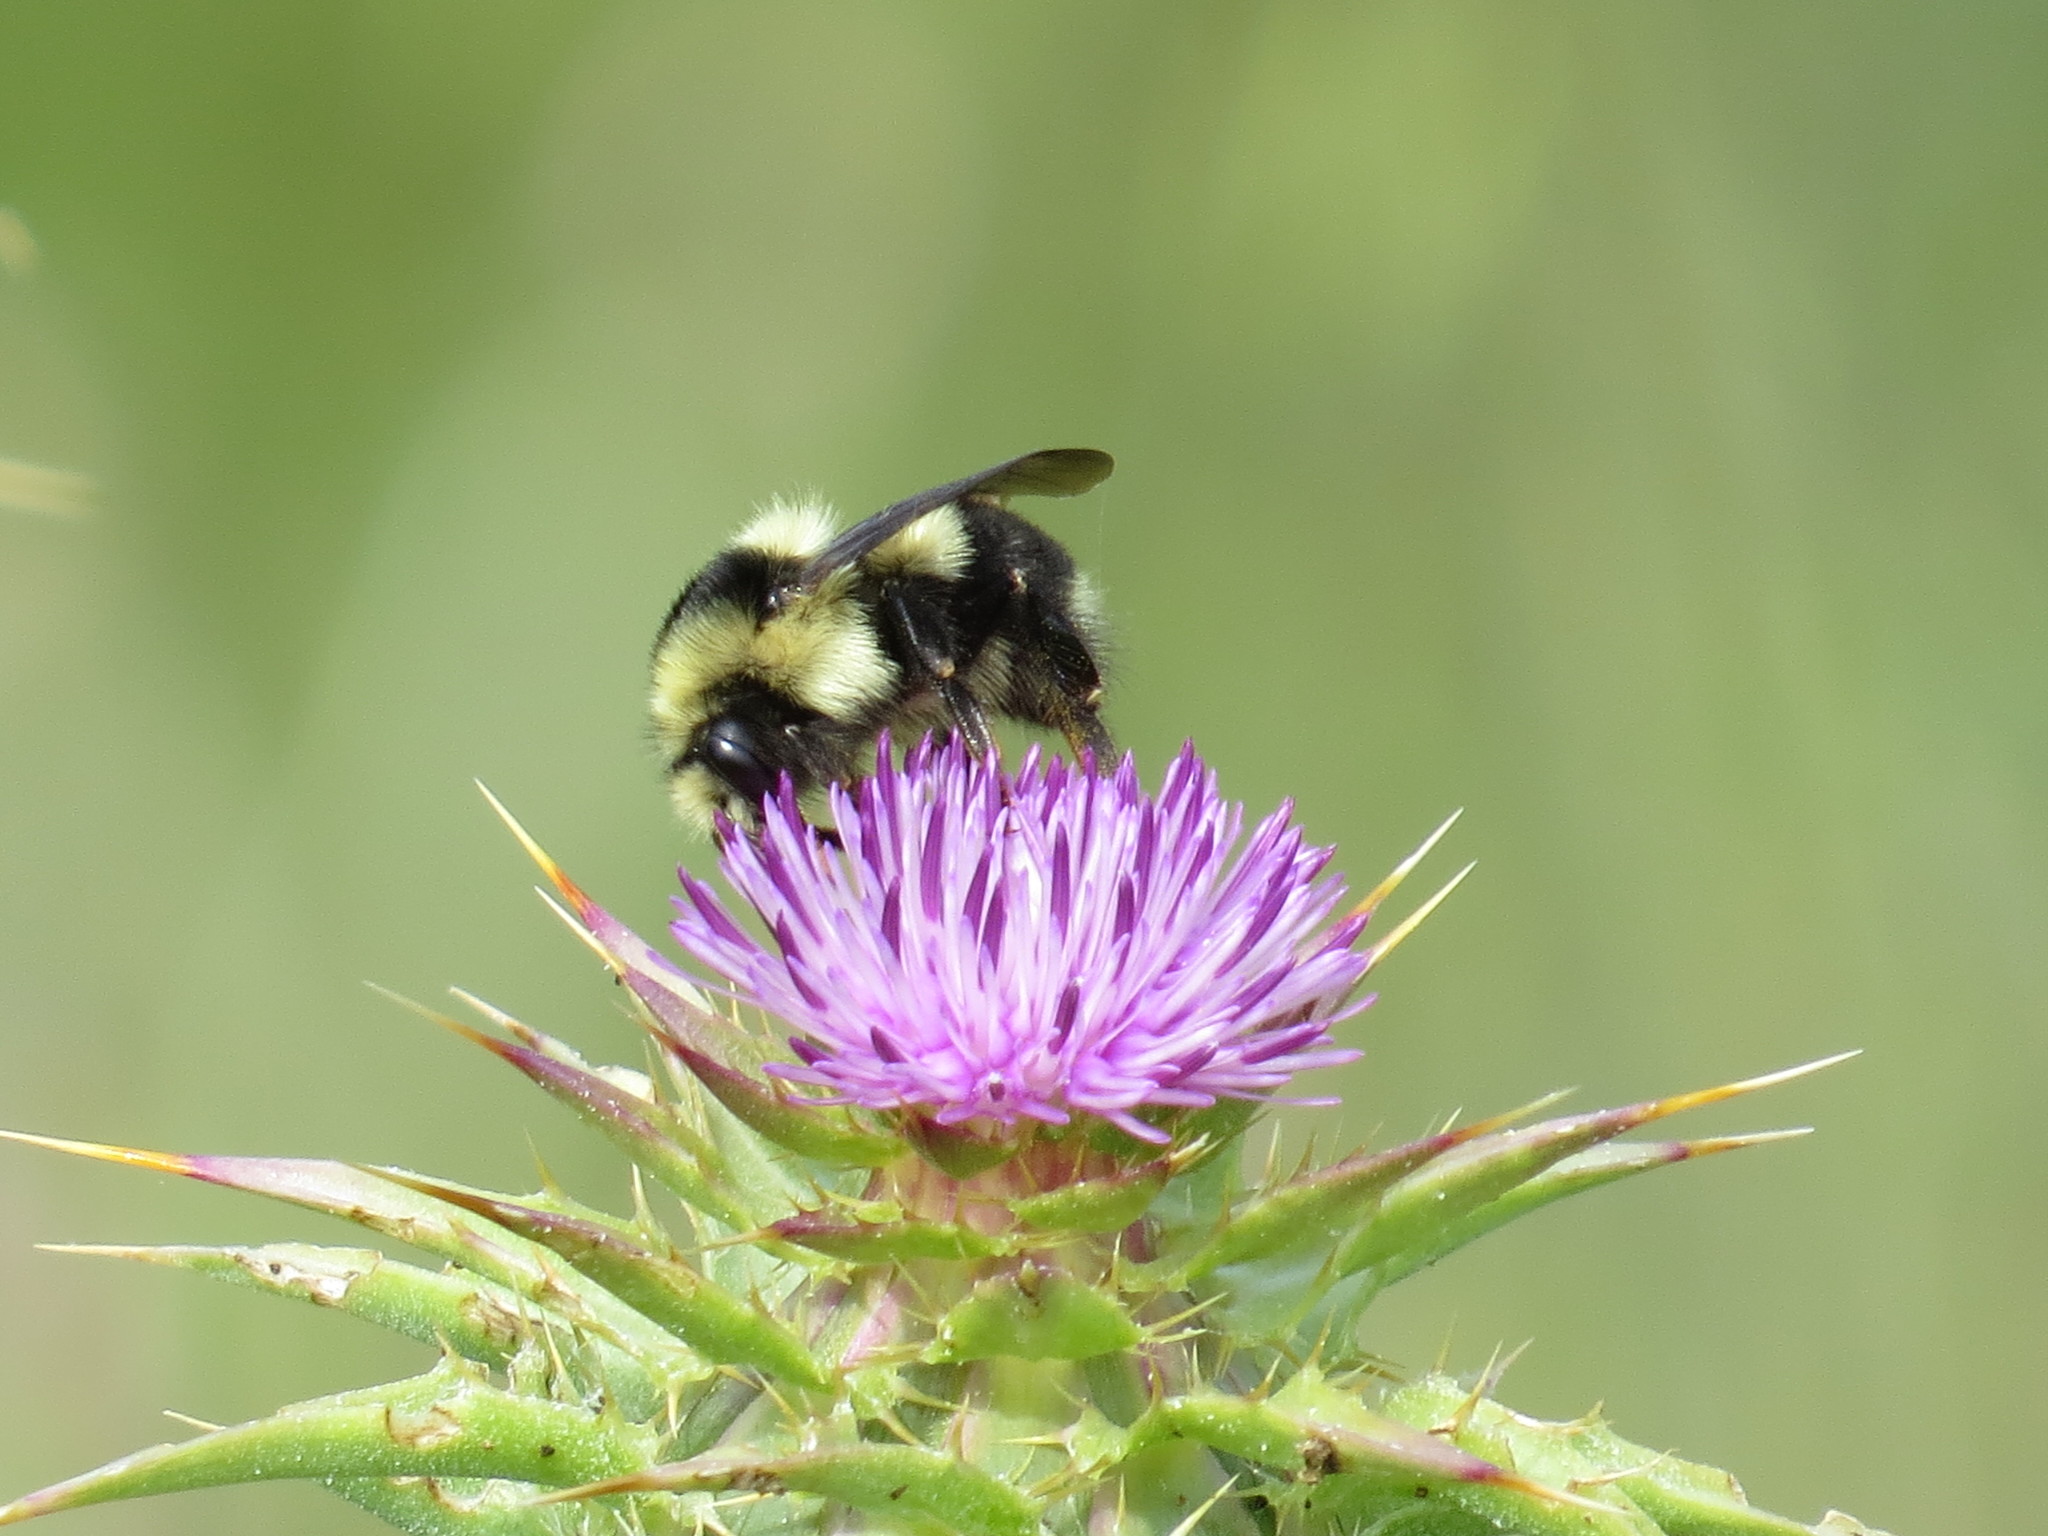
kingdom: Animalia
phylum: Arthropoda
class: Insecta
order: Hymenoptera
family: Apidae
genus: Bombus
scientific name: Bombus melanopygus
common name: Black tail bumble bee
